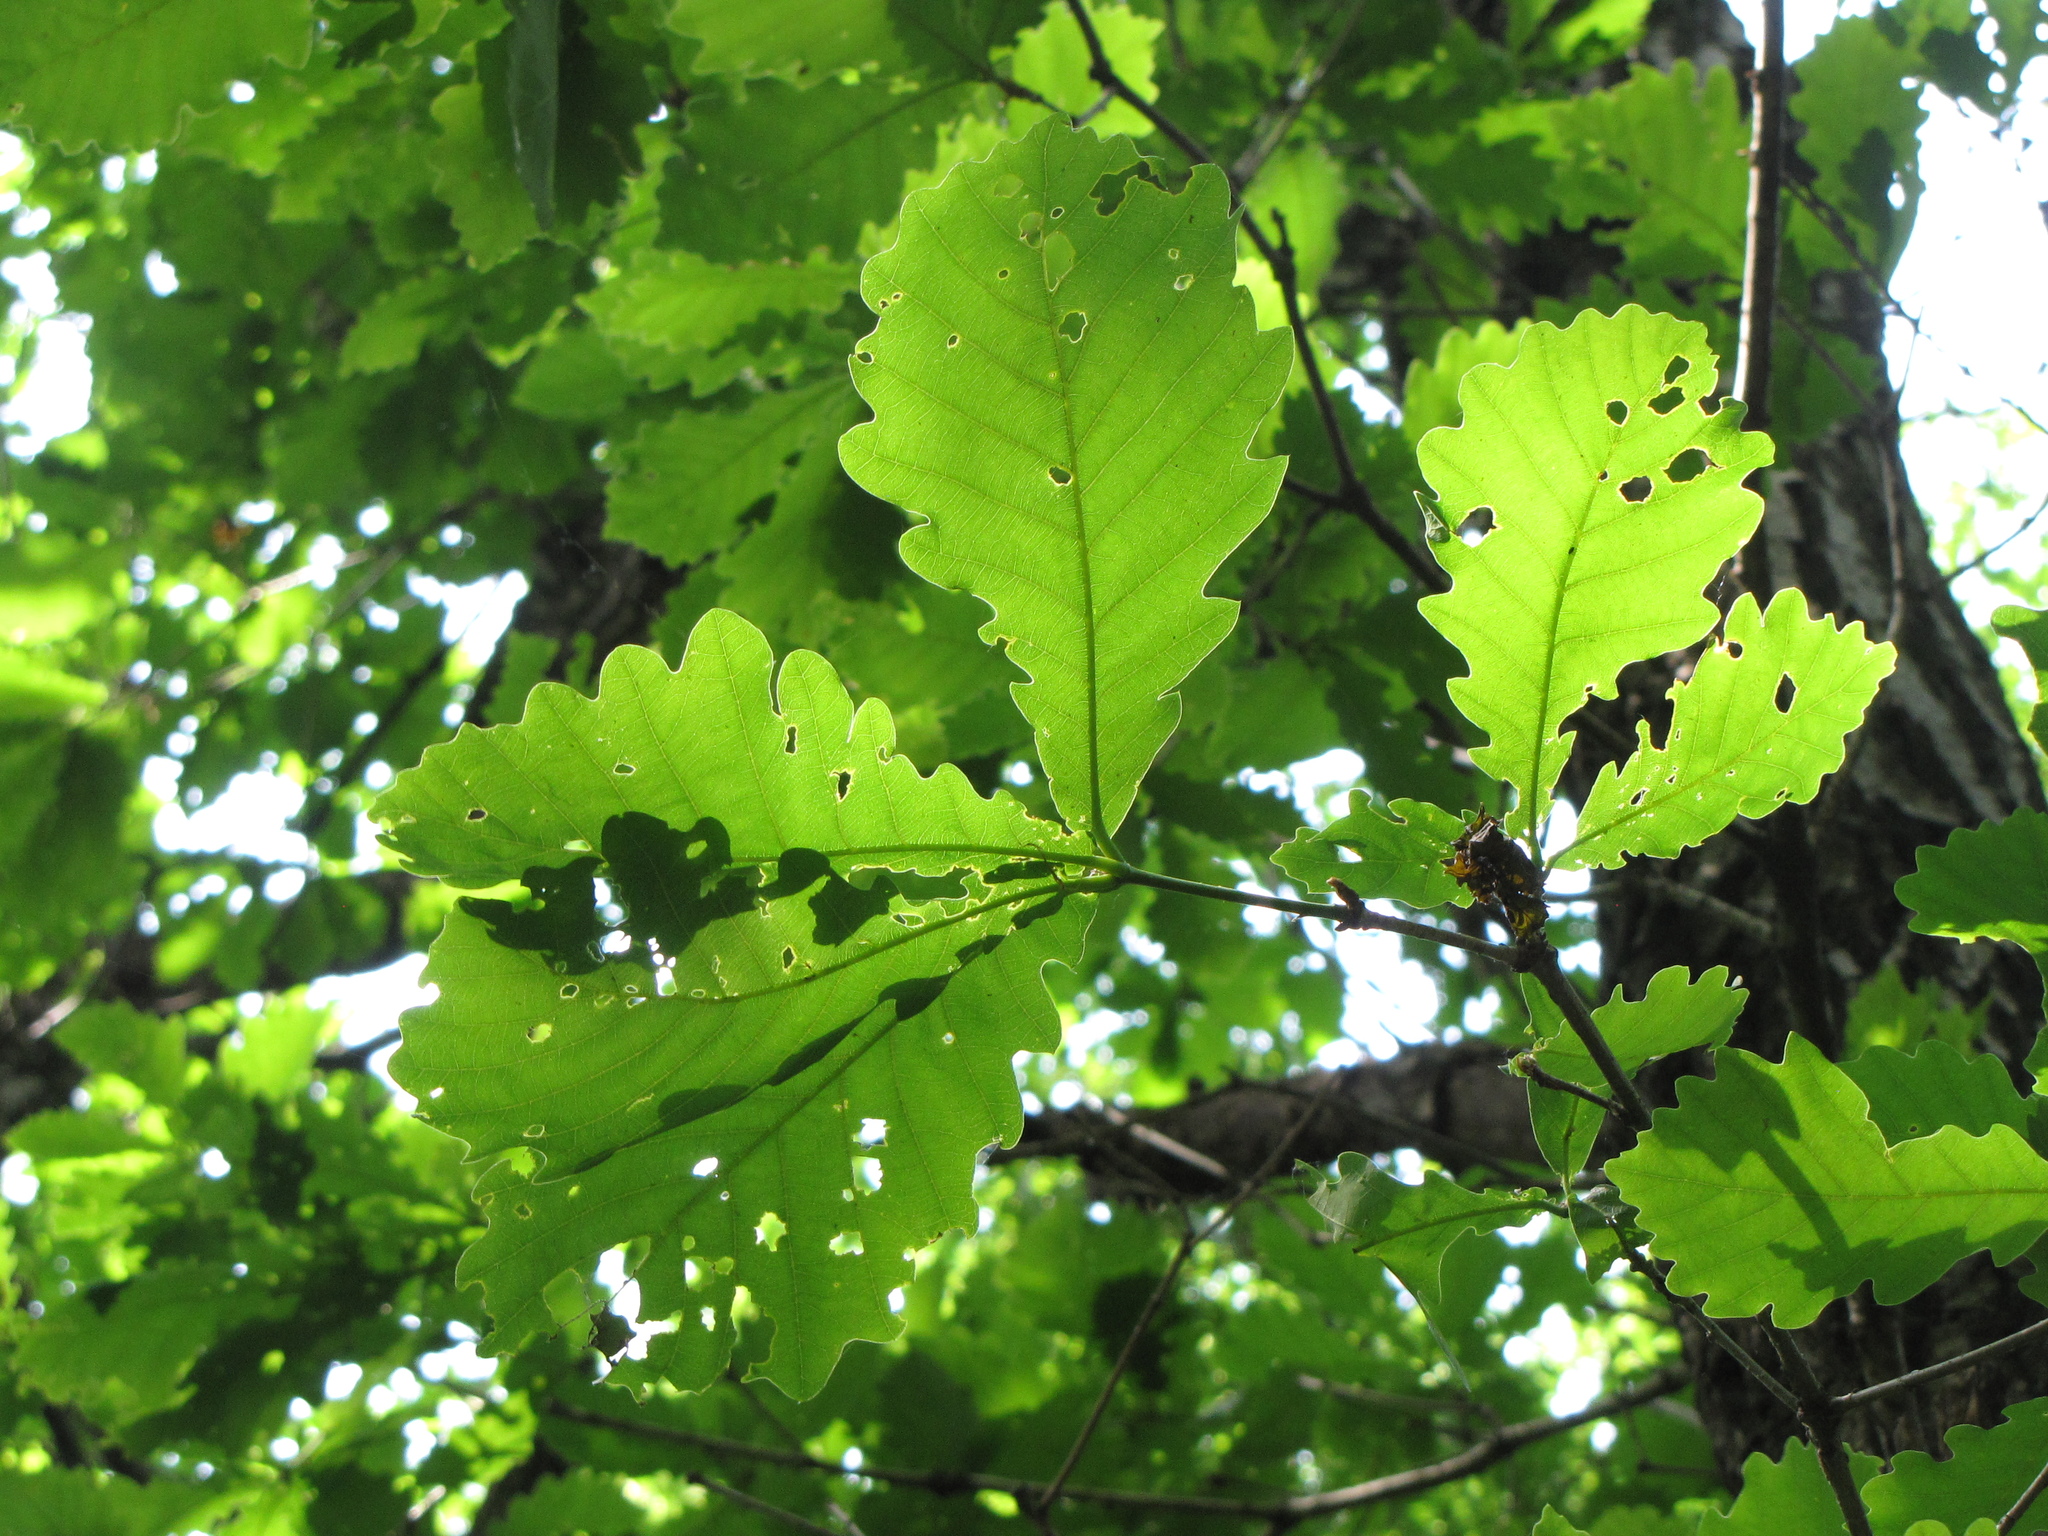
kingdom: Plantae
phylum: Tracheophyta
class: Magnoliopsida
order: Fagales
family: Fagaceae
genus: Quercus
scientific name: Quercus mongolica
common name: Mongolian oak
